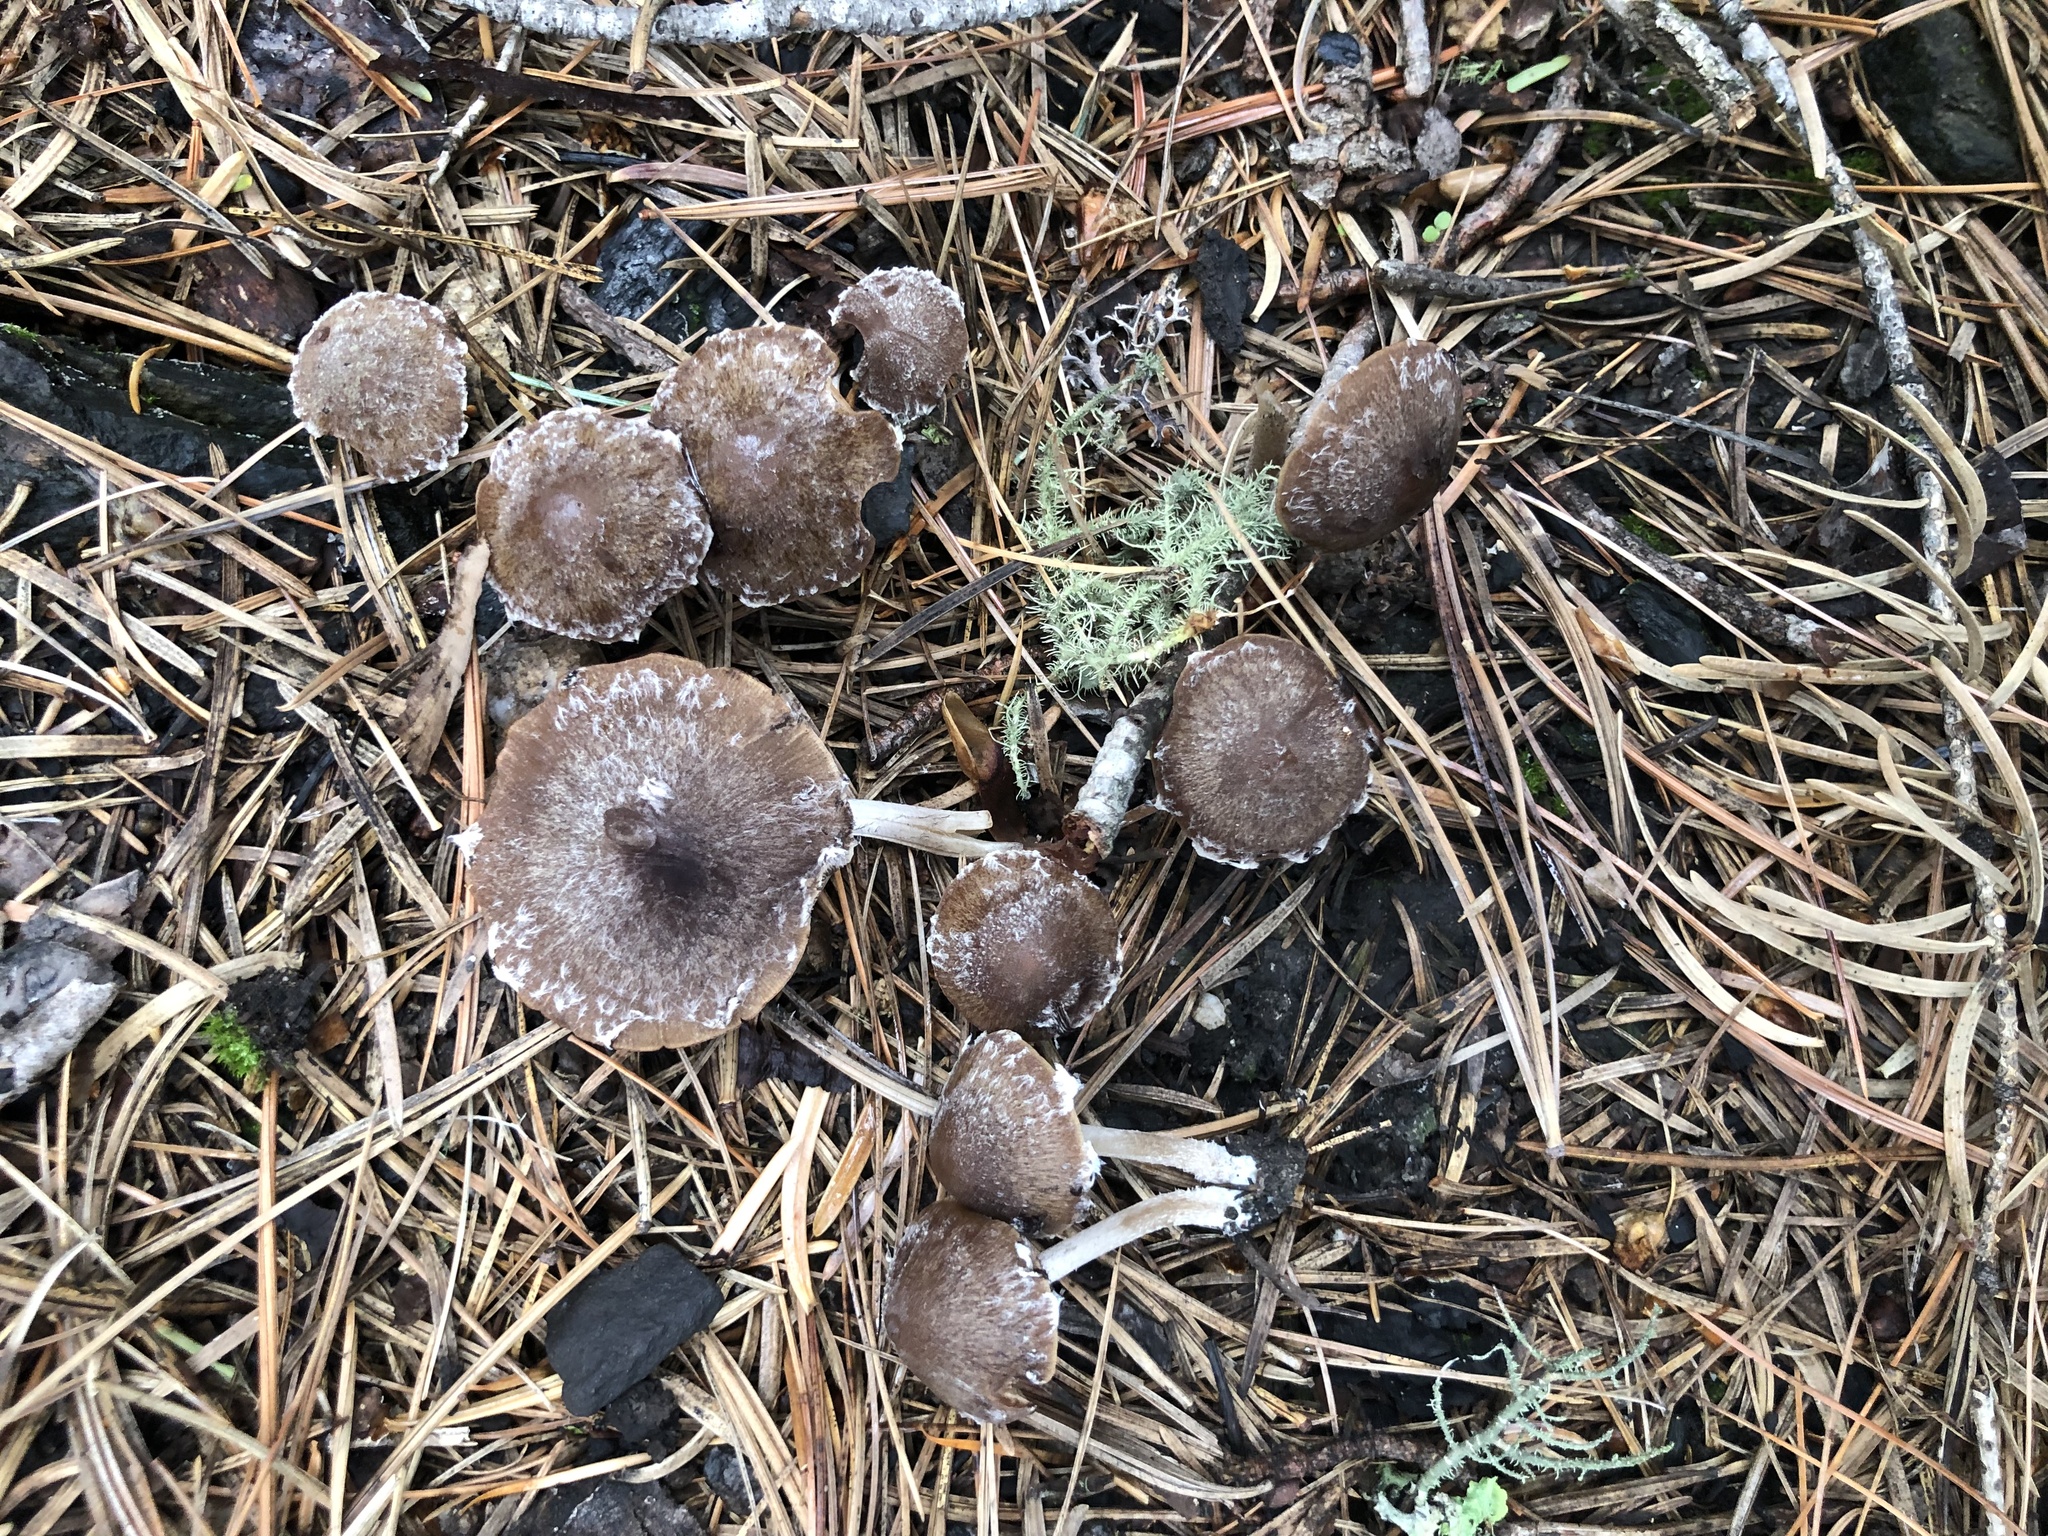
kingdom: Fungi
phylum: Basidiomycota
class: Agaricomycetes
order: Agaricales
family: Psathyrellaceae
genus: Psathyrella
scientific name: Psathyrella pennata
